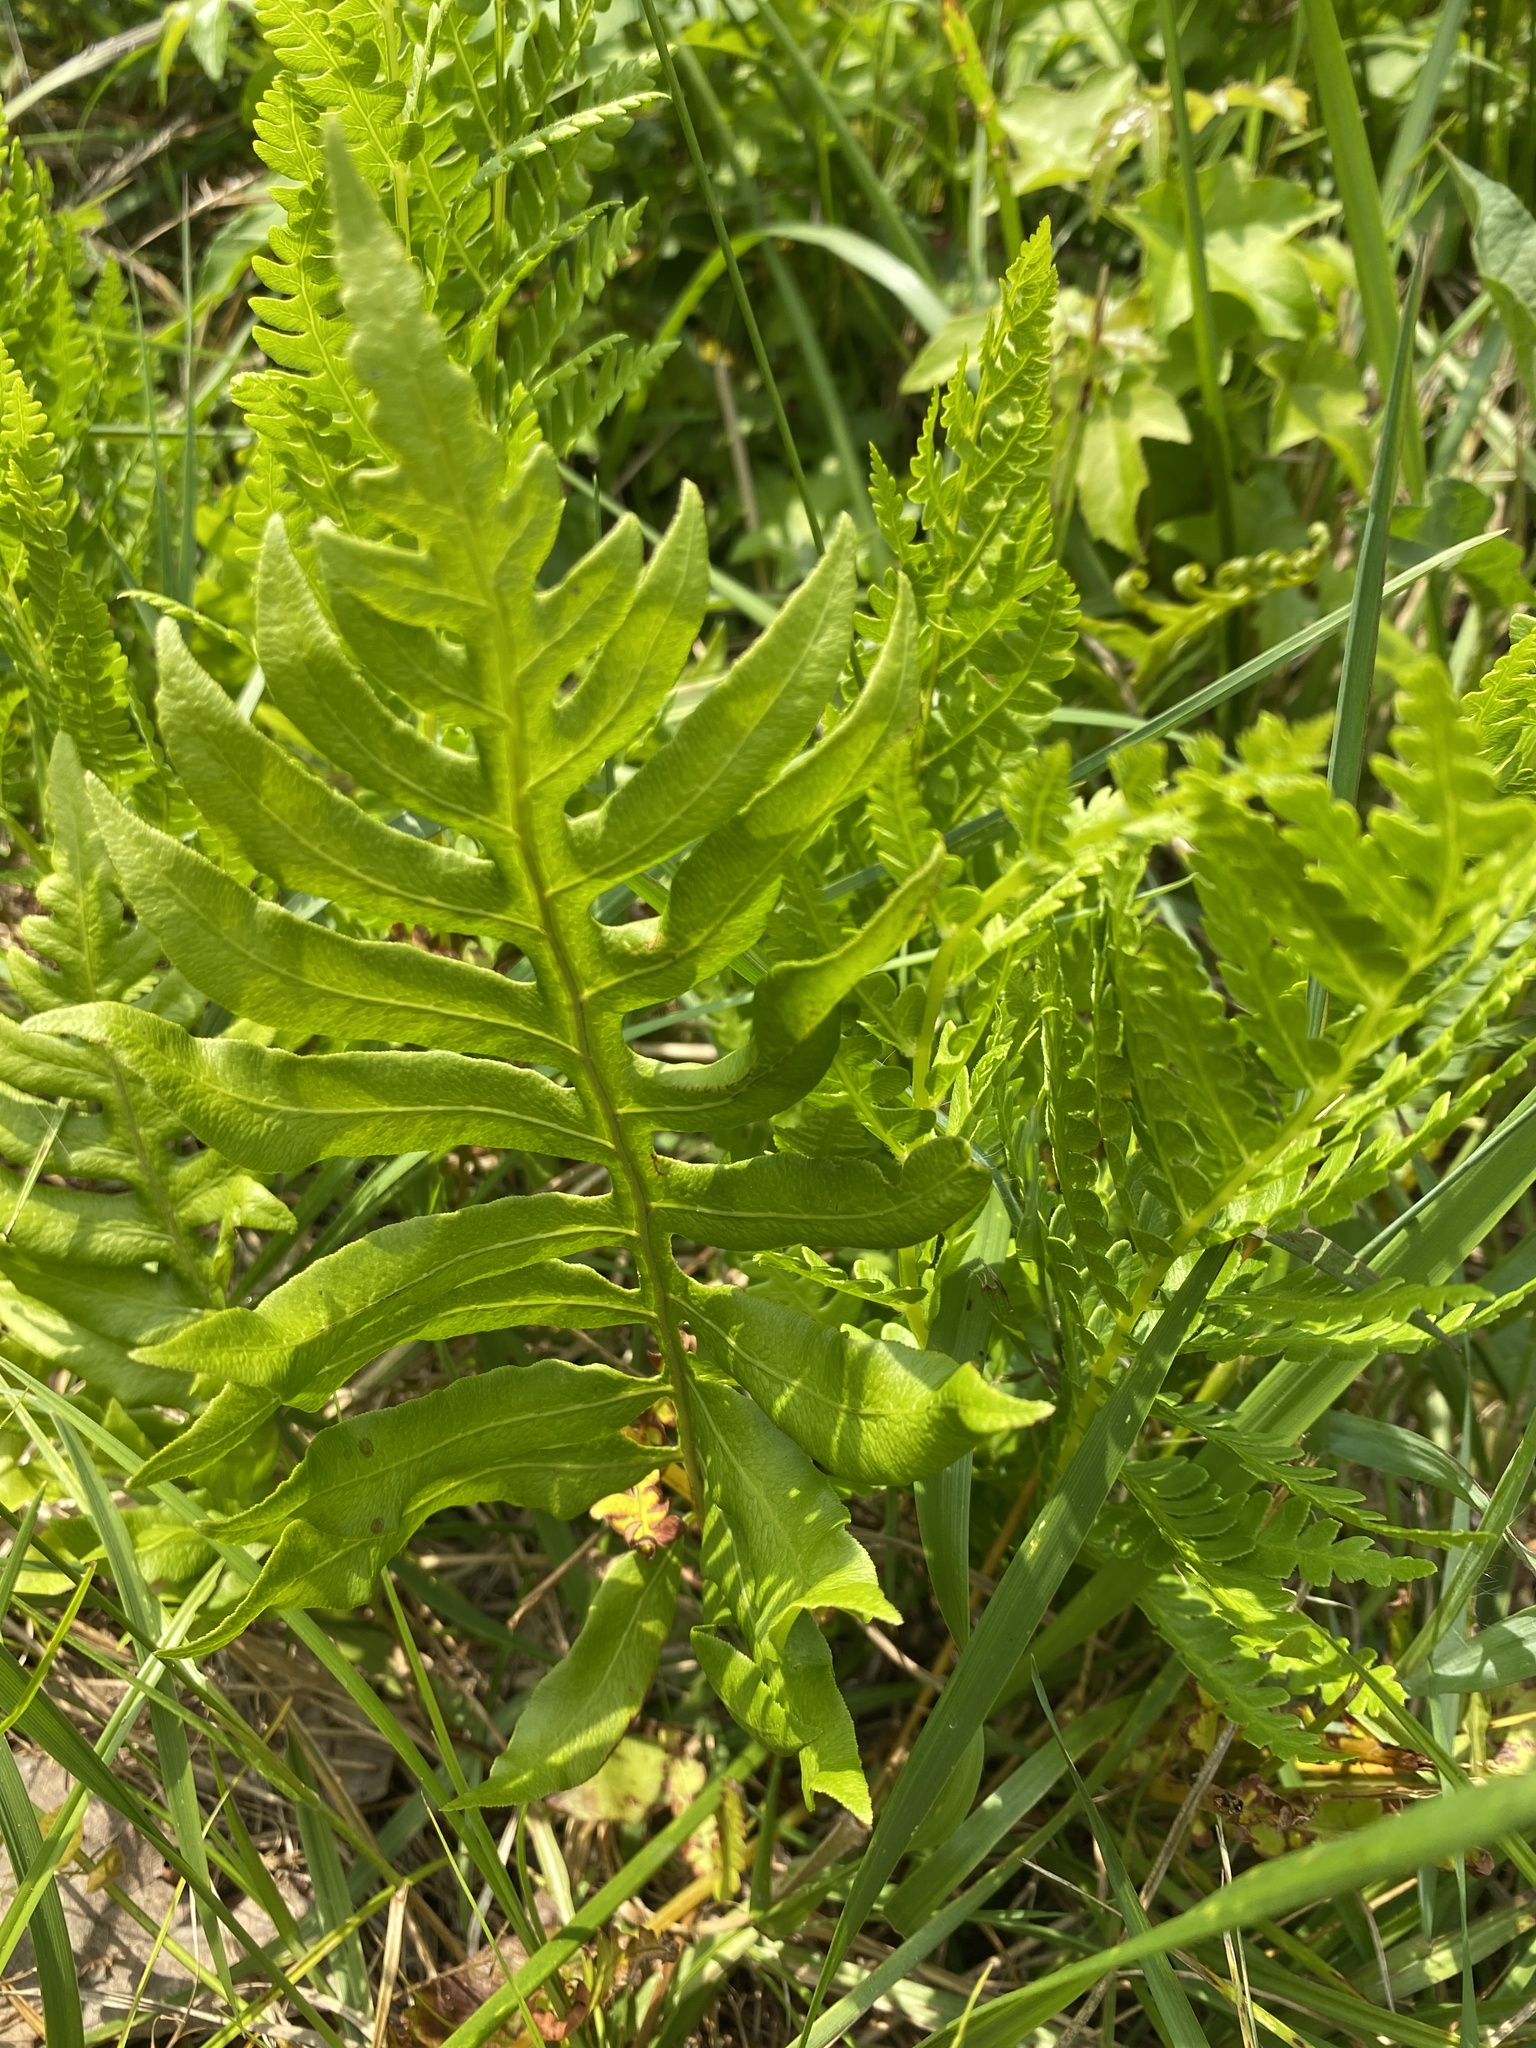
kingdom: Plantae
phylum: Tracheophyta
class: Polypodiopsida
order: Polypodiales
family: Blechnaceae
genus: Lorinseria
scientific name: Lorinseria areolata
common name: Dwarf chain fern
